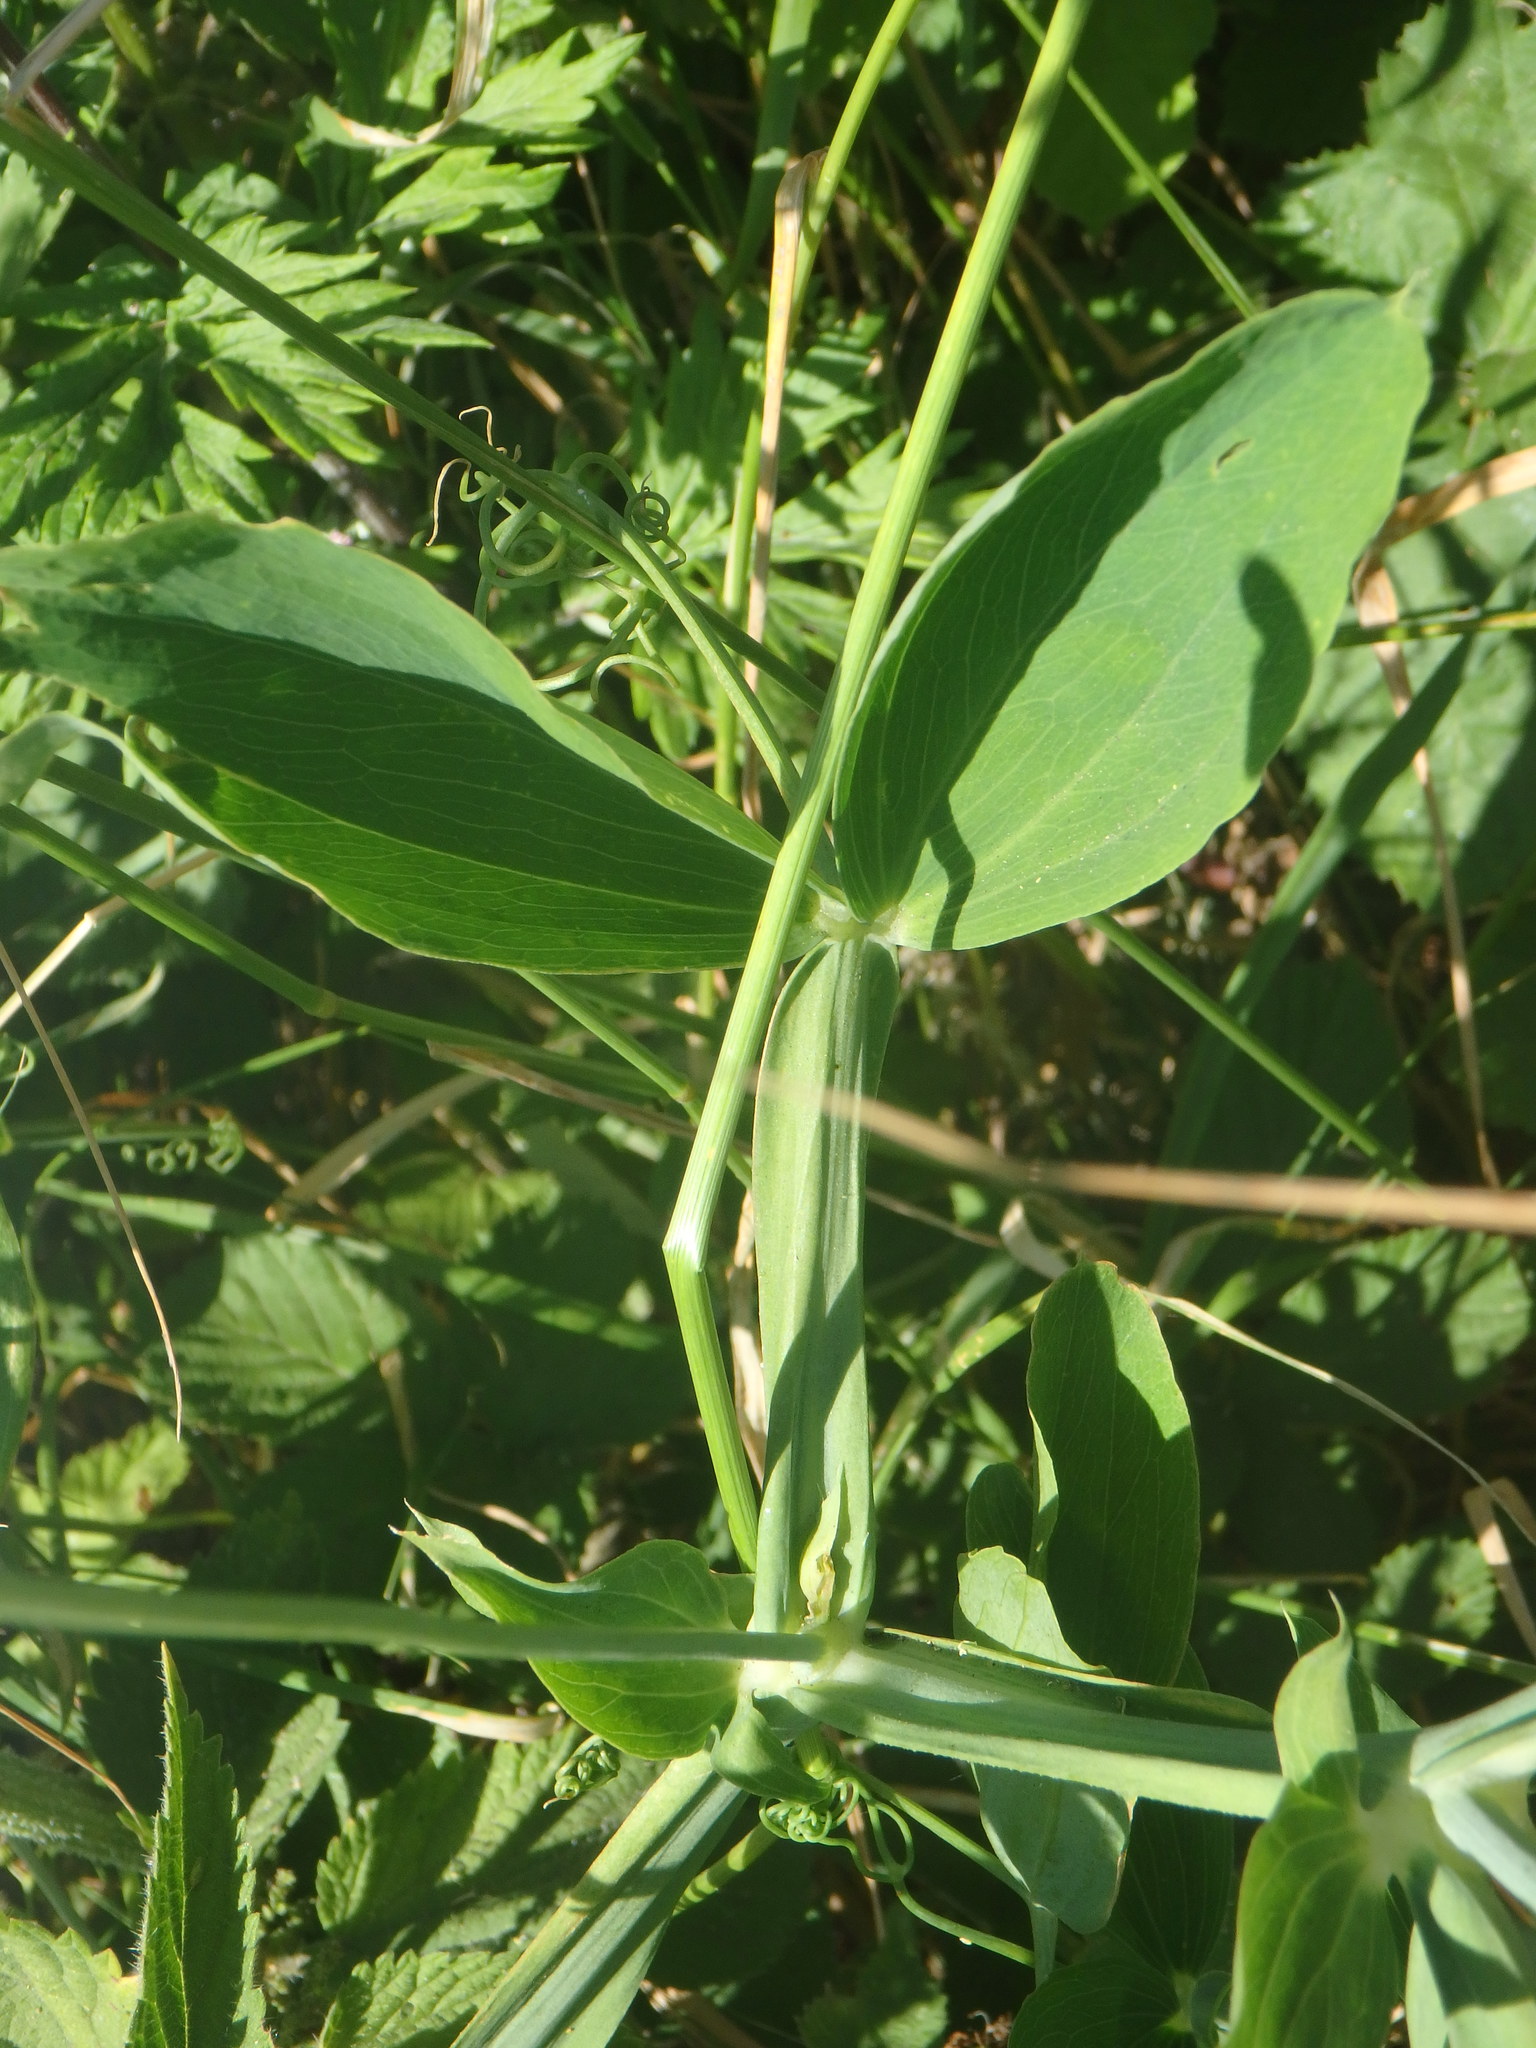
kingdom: Plantae
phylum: Tracheophyta
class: Magnoliopsida
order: Fabales
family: Fabaceae
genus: Lathyrus
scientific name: Lathyrus latifolius
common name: Perennial pea
